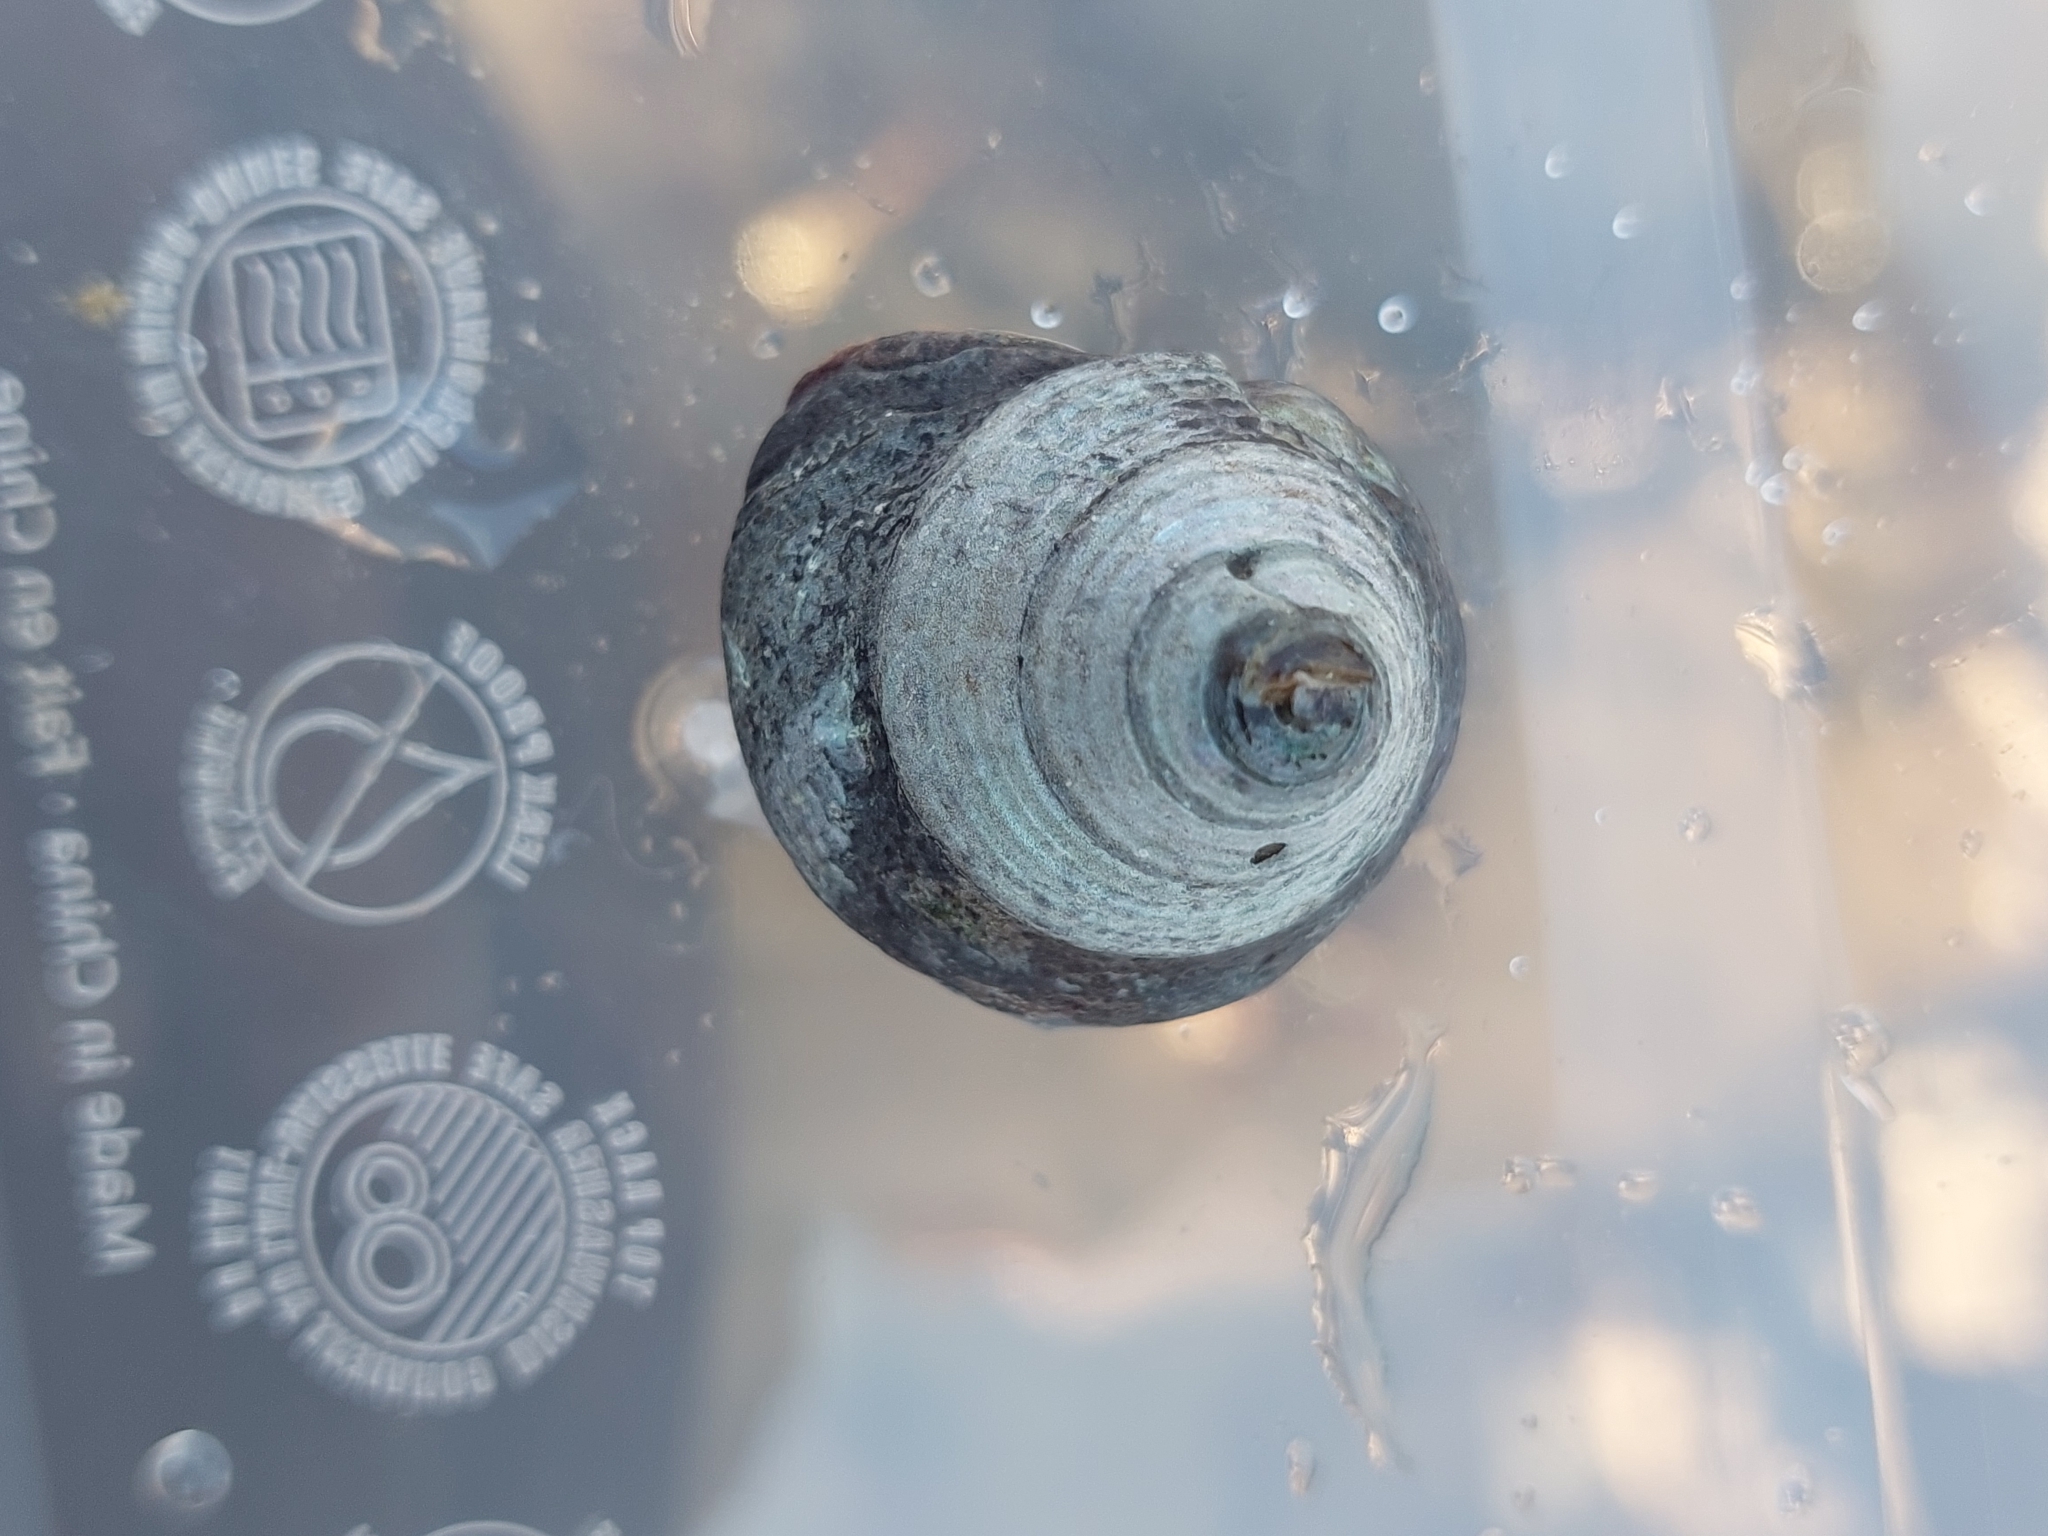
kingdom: Animalia
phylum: Mollusca
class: Gastropoda
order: Trochida
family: Calliostomatidae
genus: Calliostoma
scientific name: Calliostoma zizyphinum
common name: Painted top shell
